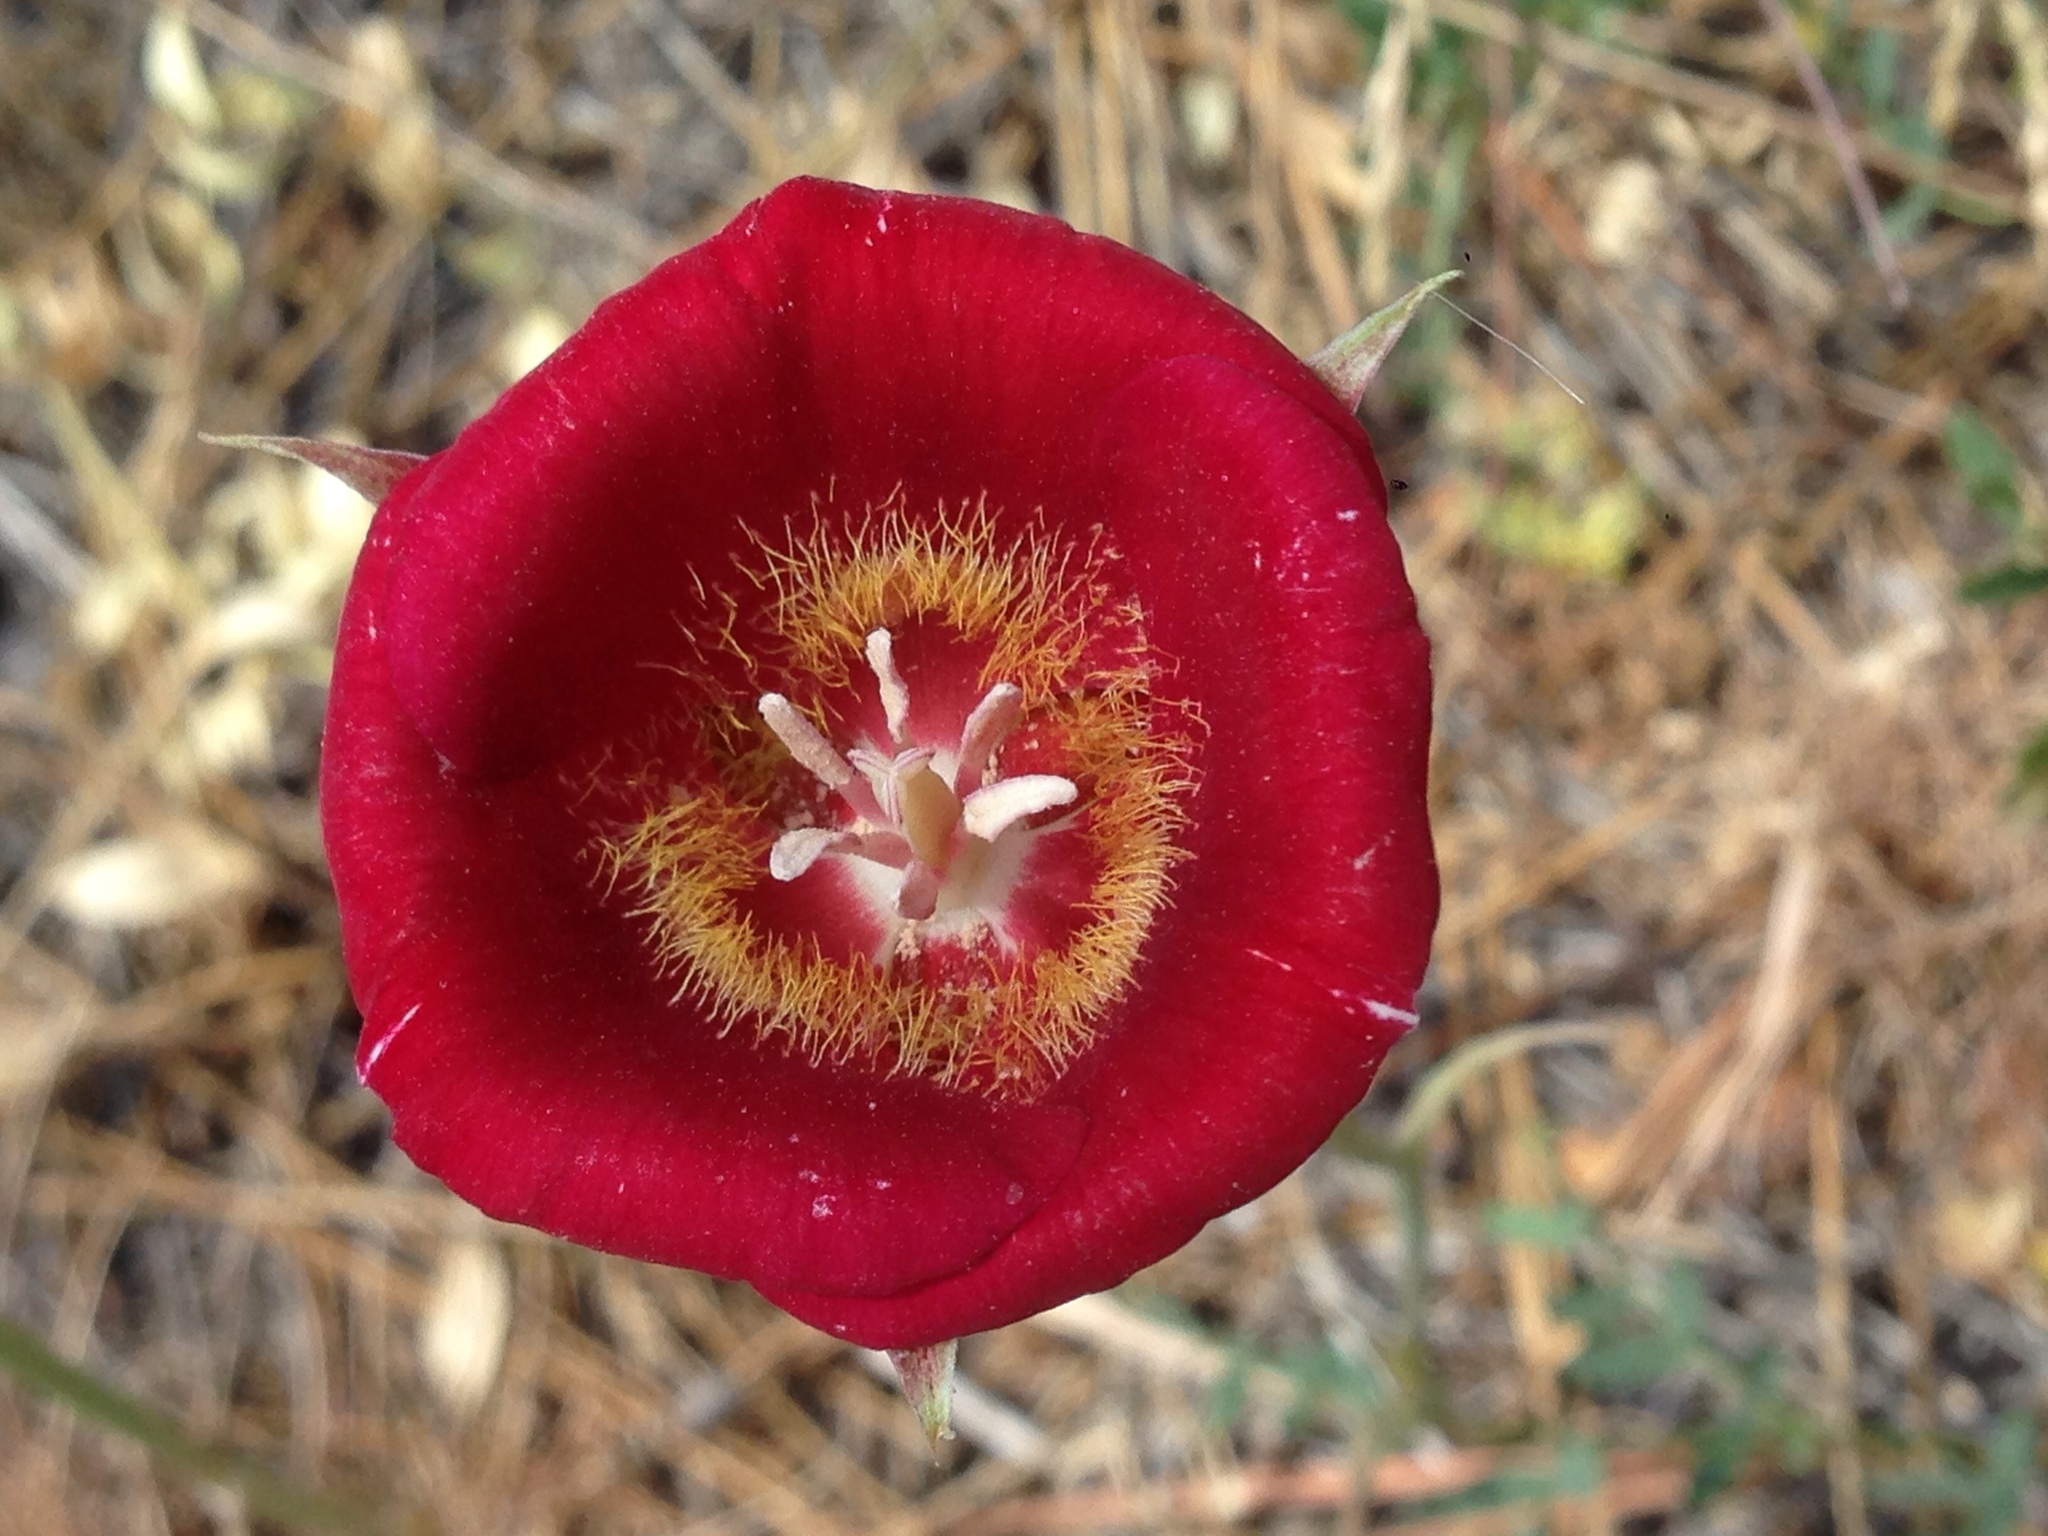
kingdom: Plantae
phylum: Tracheophyta
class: Liliopsida
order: Liliales
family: Liliaceae
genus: Calochortus
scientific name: Calochortus venustus
